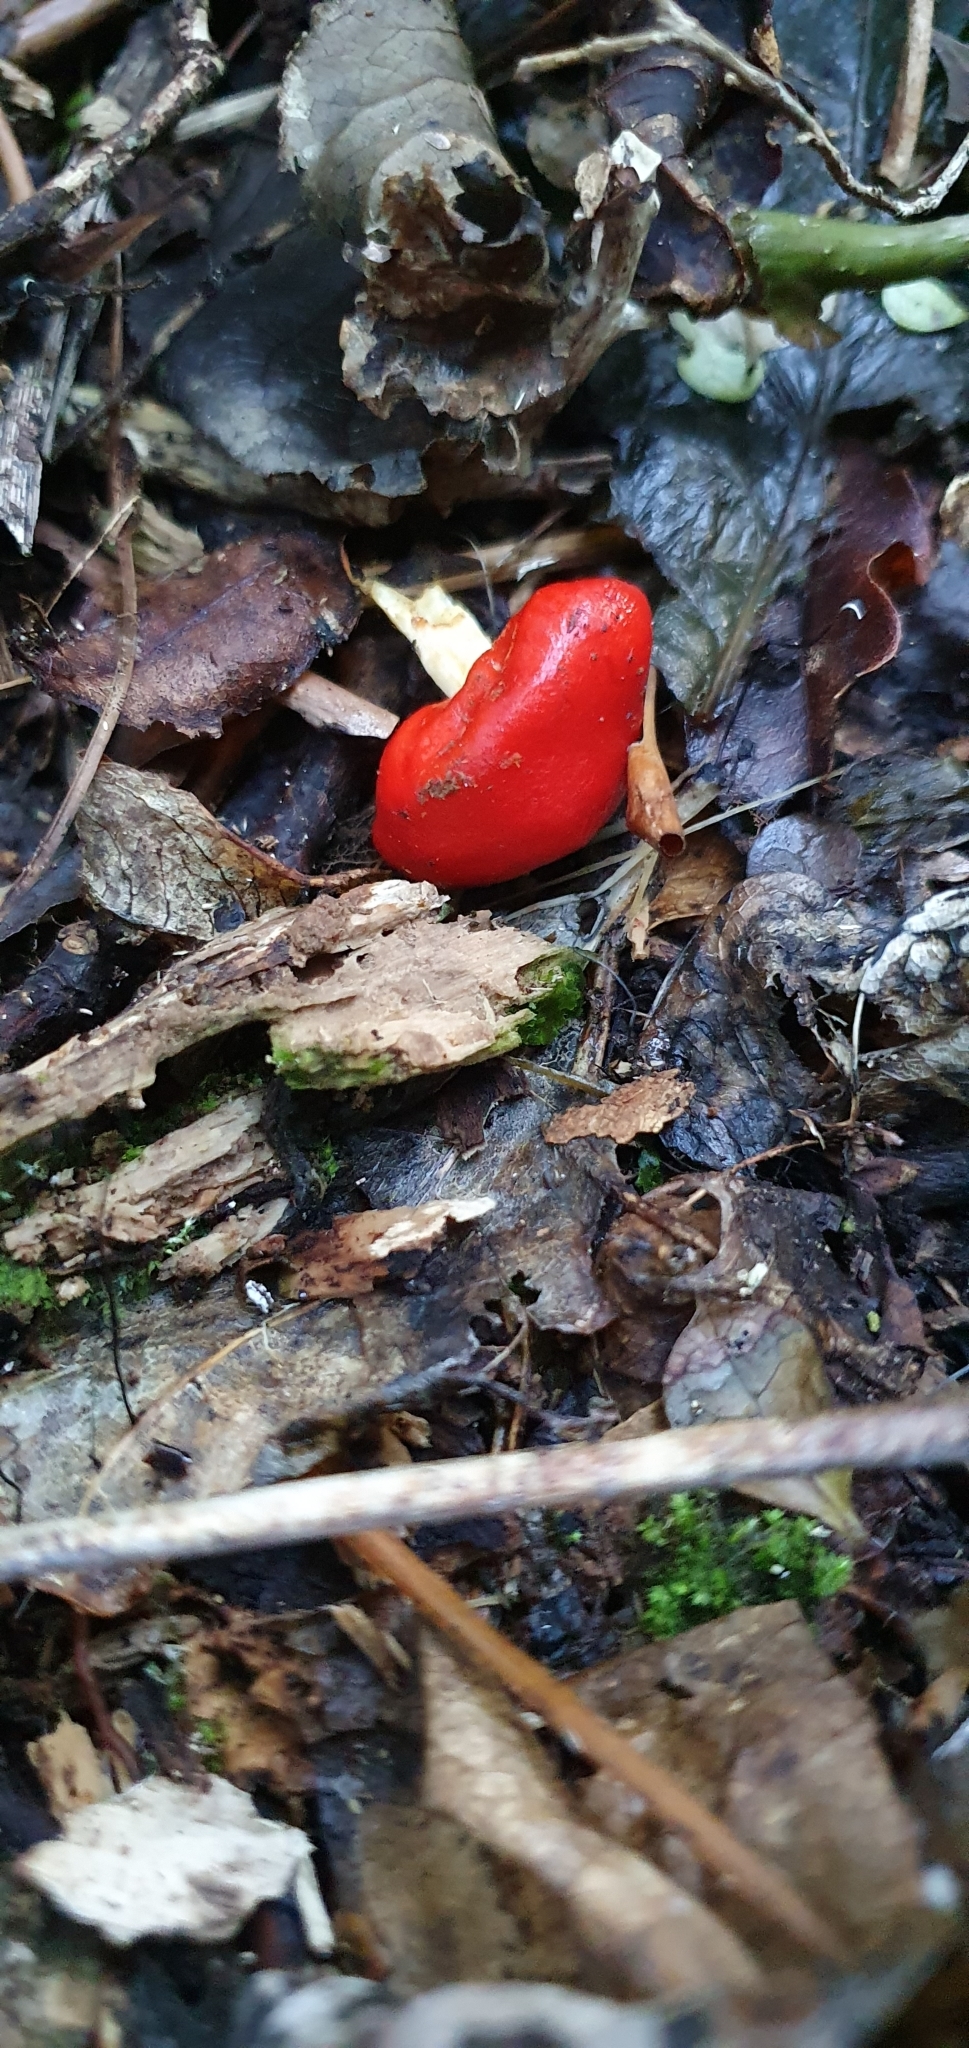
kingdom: Fungi
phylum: Basidiomycota
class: Agaricomycetes
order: Agaricales
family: Strophariaceae
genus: Leratiomyces
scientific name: Leratiomyces erythrocephalus
